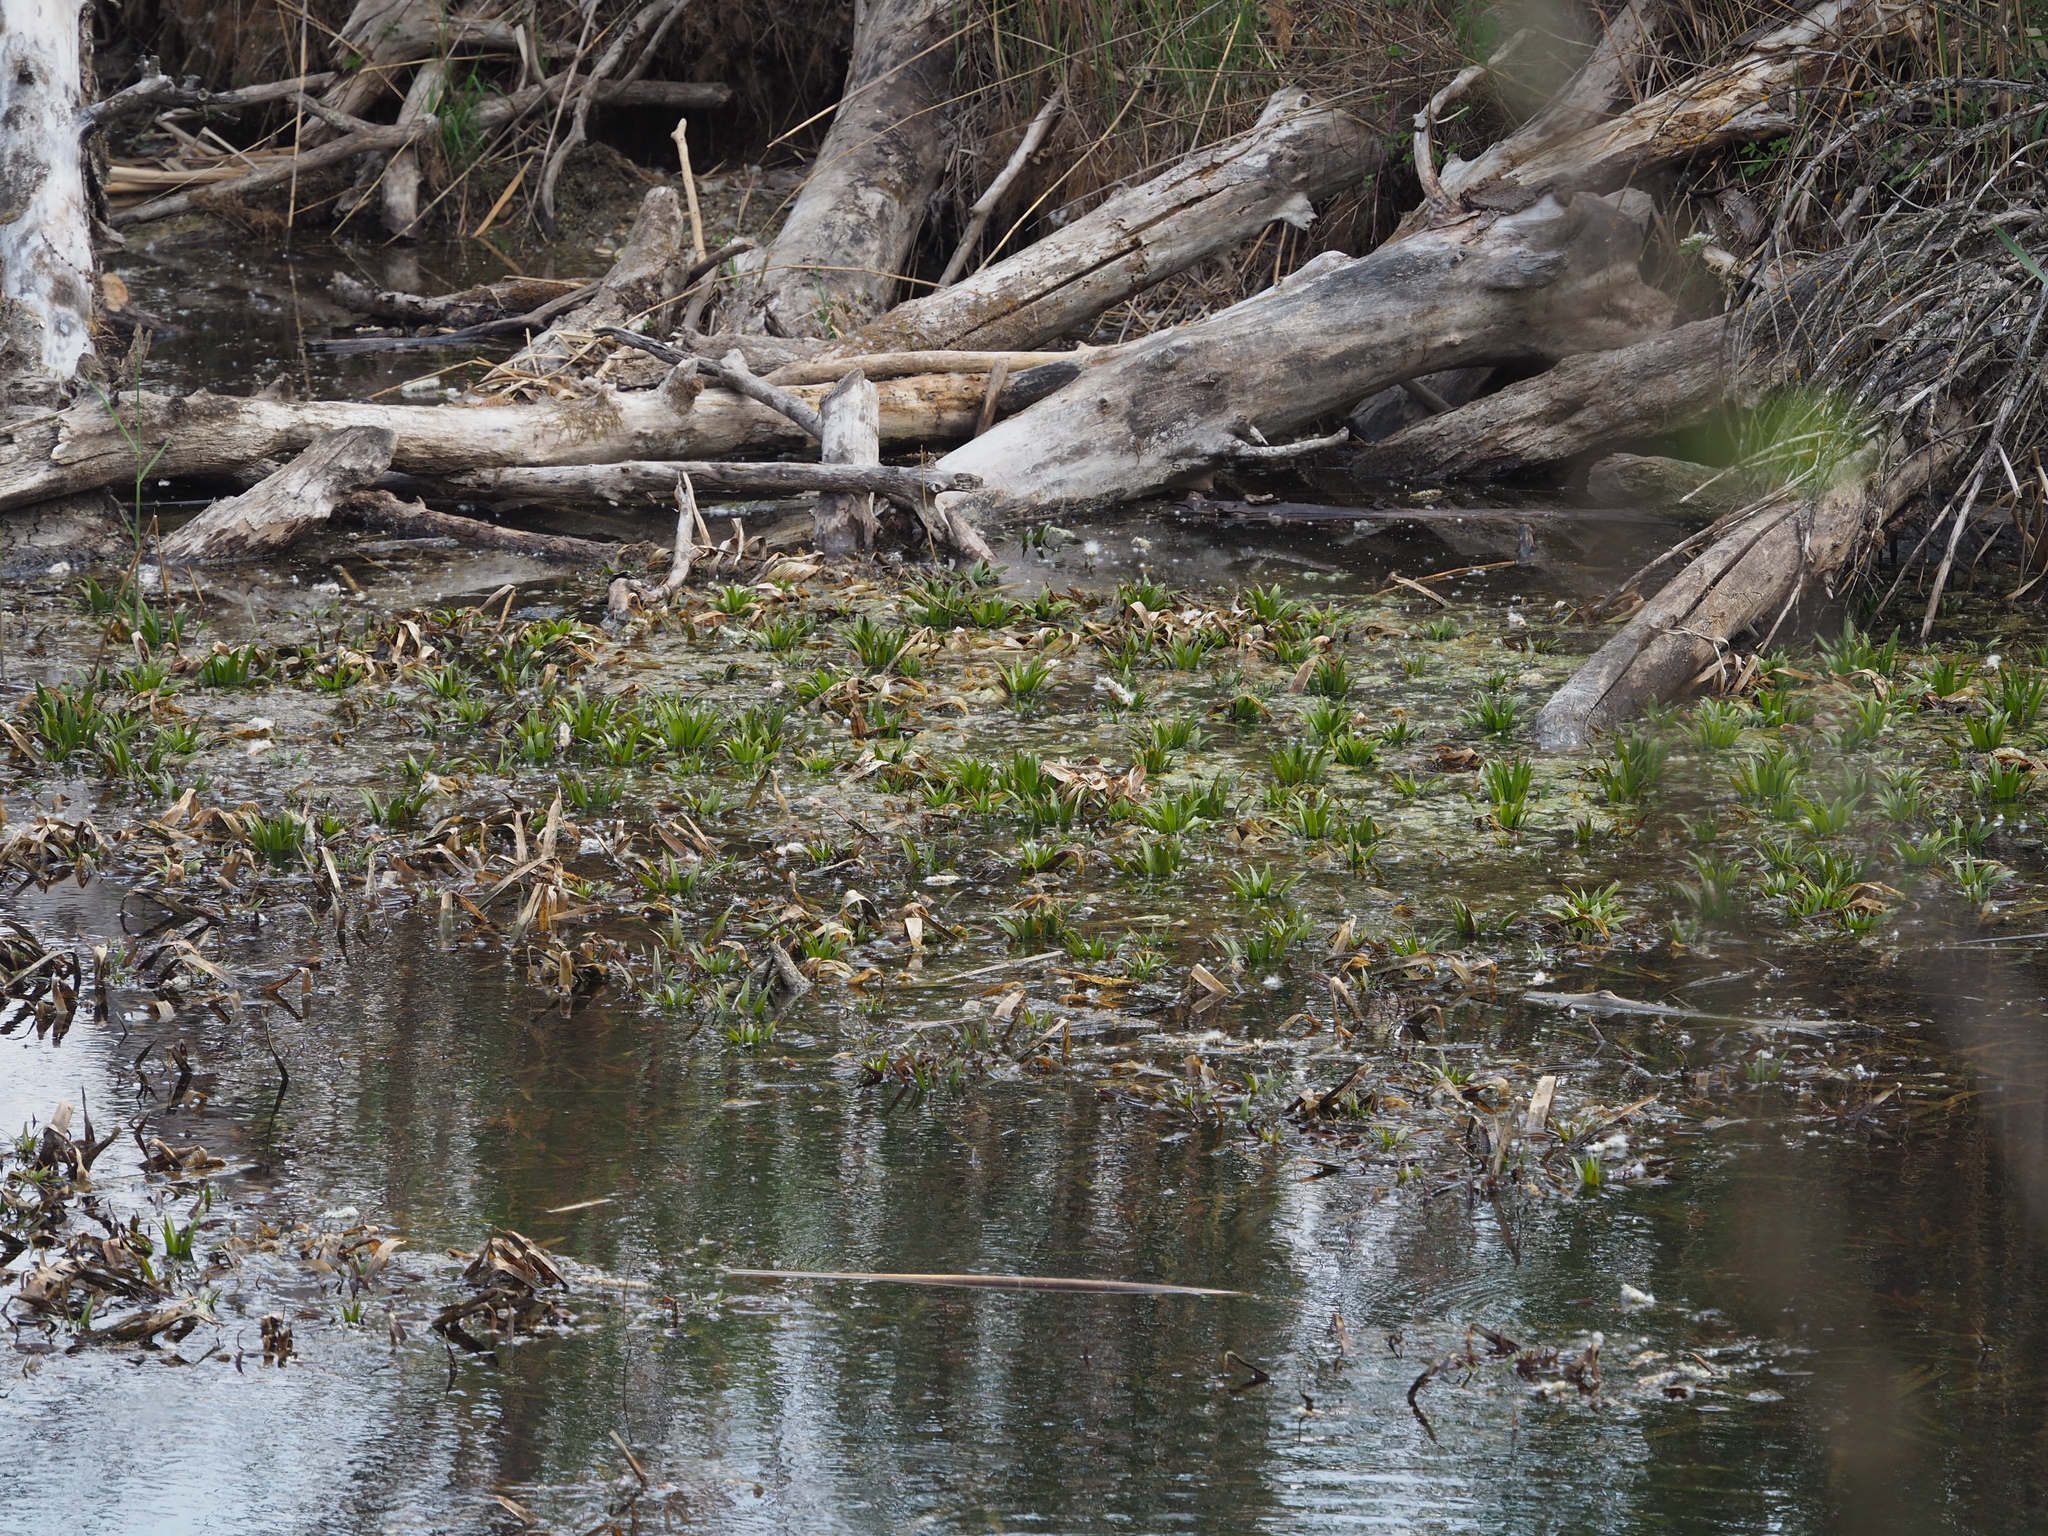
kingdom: Plantae
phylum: Tracheophyta
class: Liliopsida
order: Alismatales
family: Hydrocharitaceae
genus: Stratiotes
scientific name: Stratiotes aloides
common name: Water-soldier
